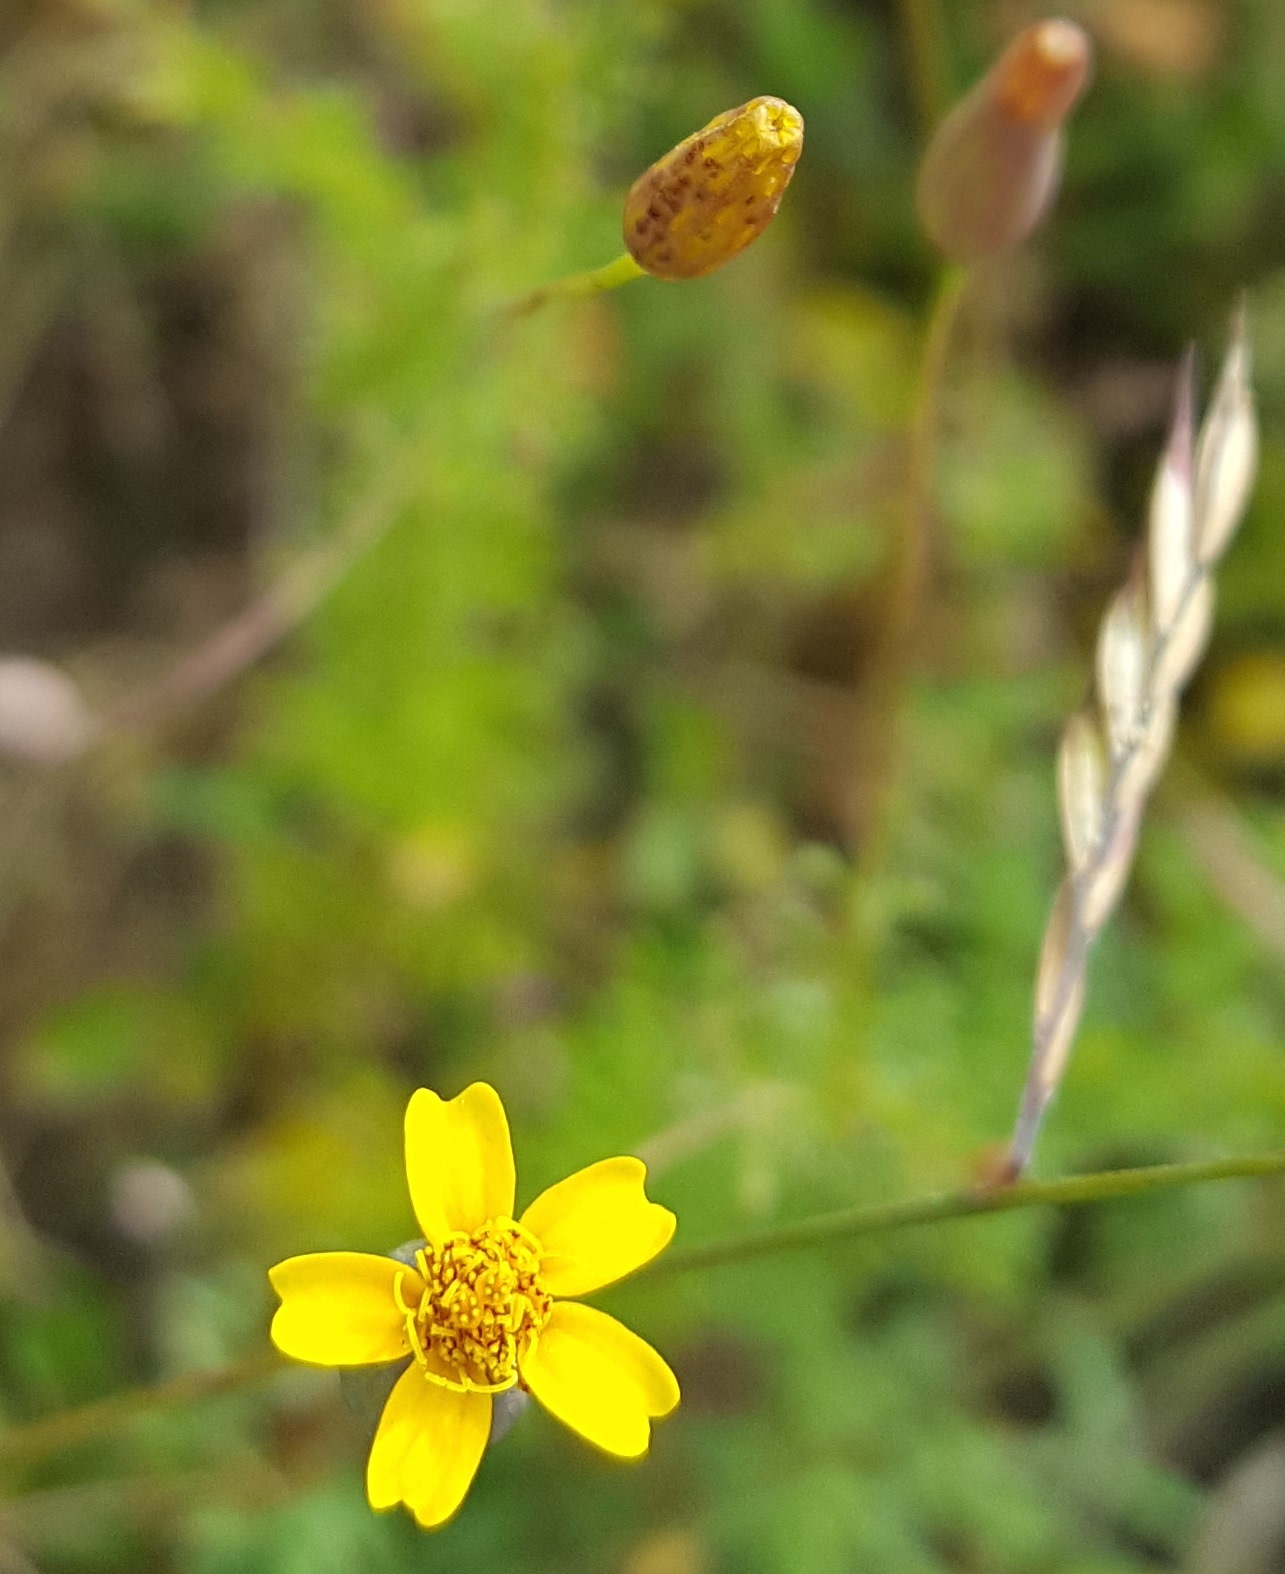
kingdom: Plantae
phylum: Tracheophyta
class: Magnoliopsida
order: Asterales
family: Asteraceae
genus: Tagetes
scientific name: Tagetes subulata
